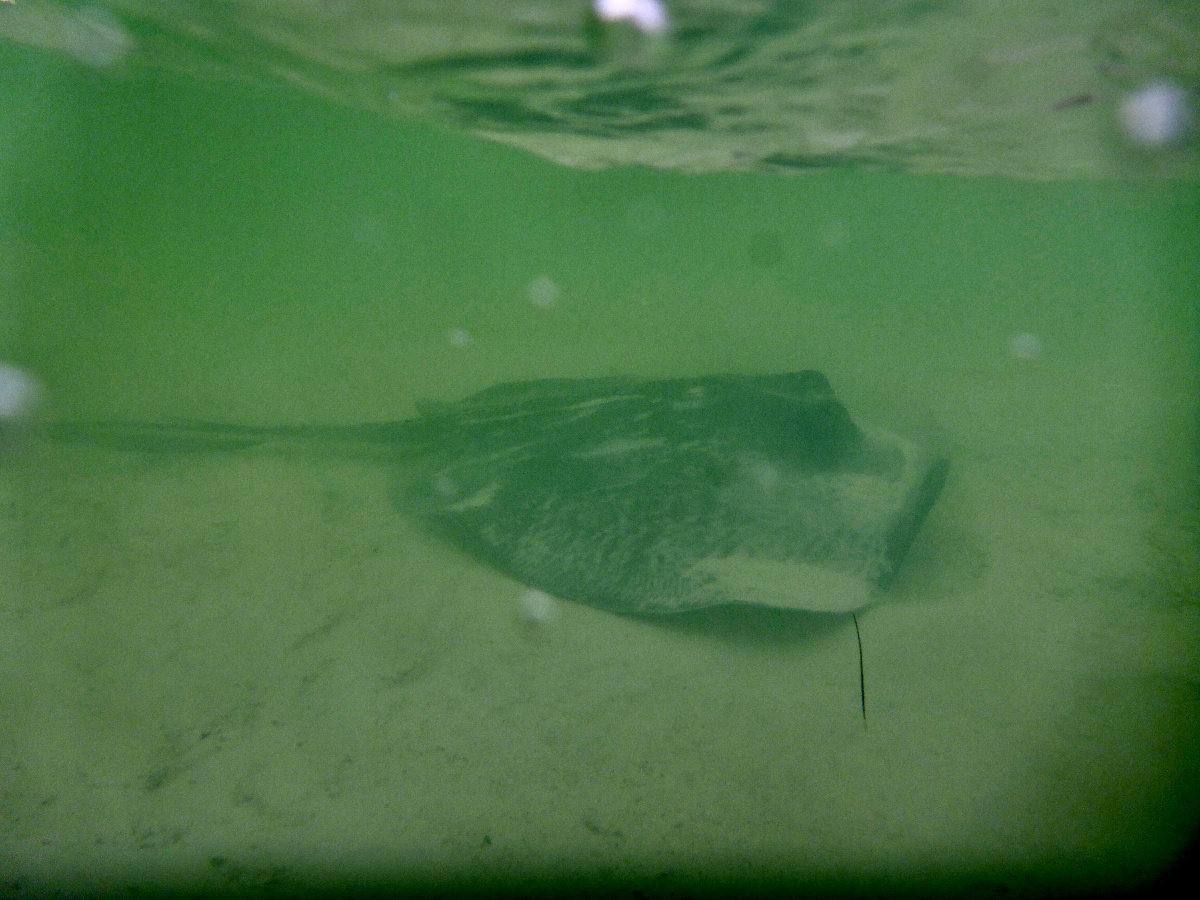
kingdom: Animalia
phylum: Chordata
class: Elasmobranchii
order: Myliobatiformes
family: Dasyatidae
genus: Hypanus
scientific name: Hypanus americanus
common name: Southern stingray
